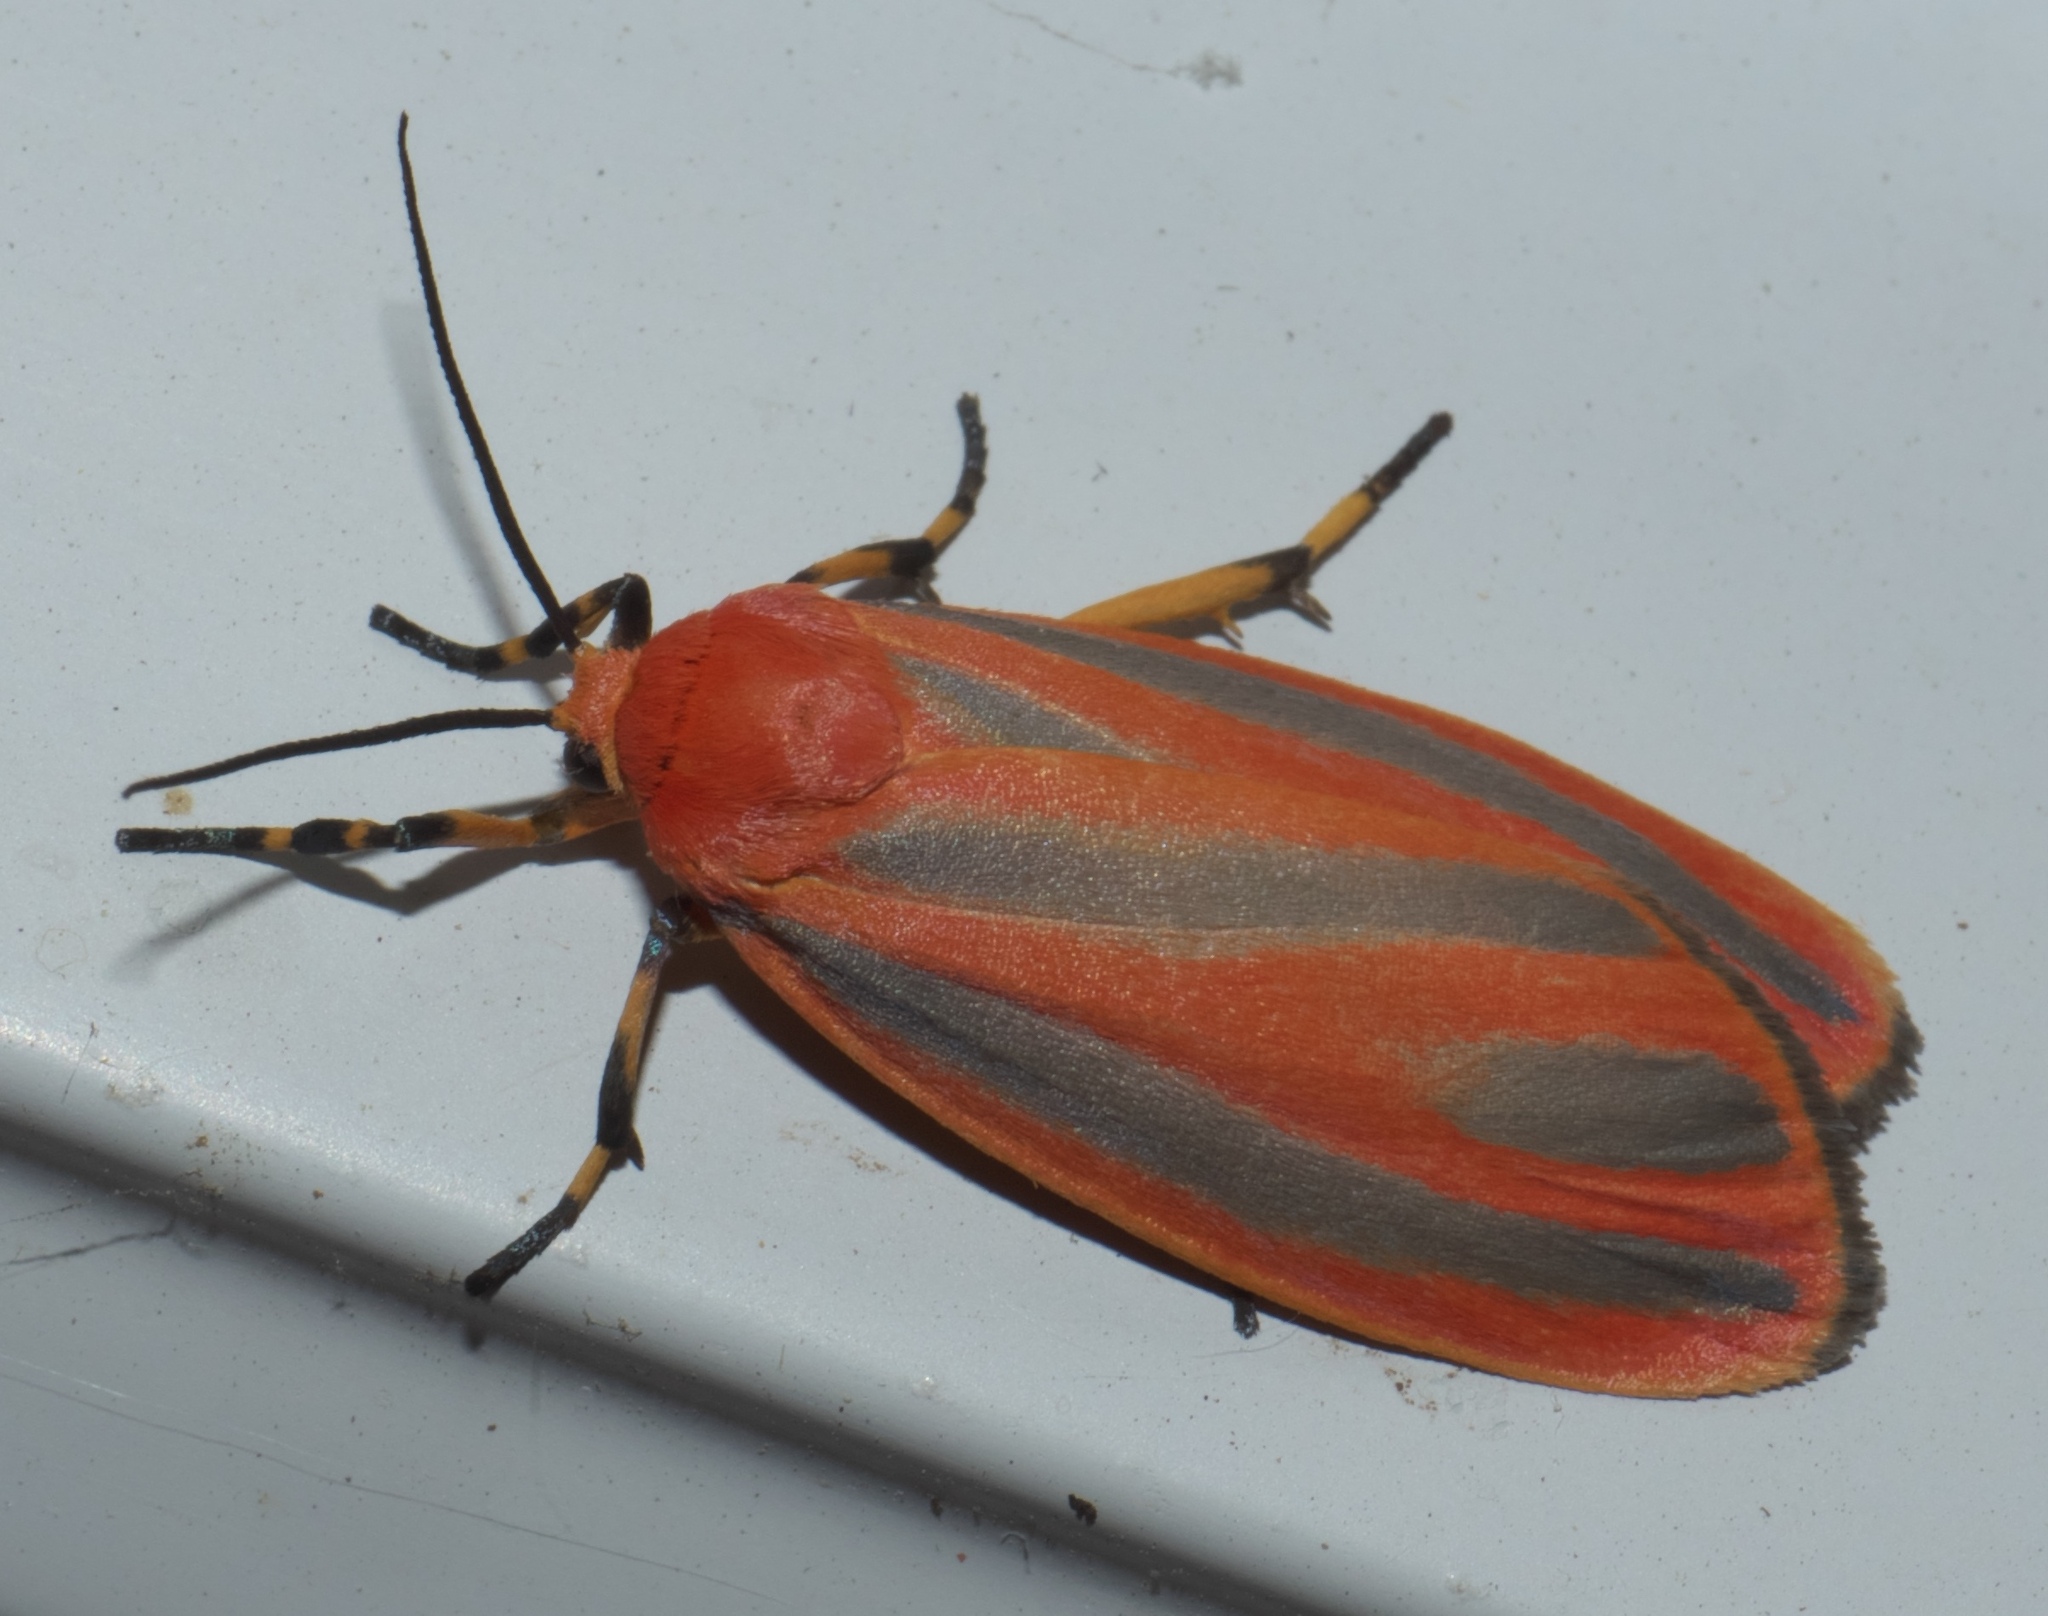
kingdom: Animalia
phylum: Arthropoda
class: Insecta
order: Lepidoptera
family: Erebidae
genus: Hypoprepia
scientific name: Hypoprepia miniata
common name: Scarlet-winged lichen moth
